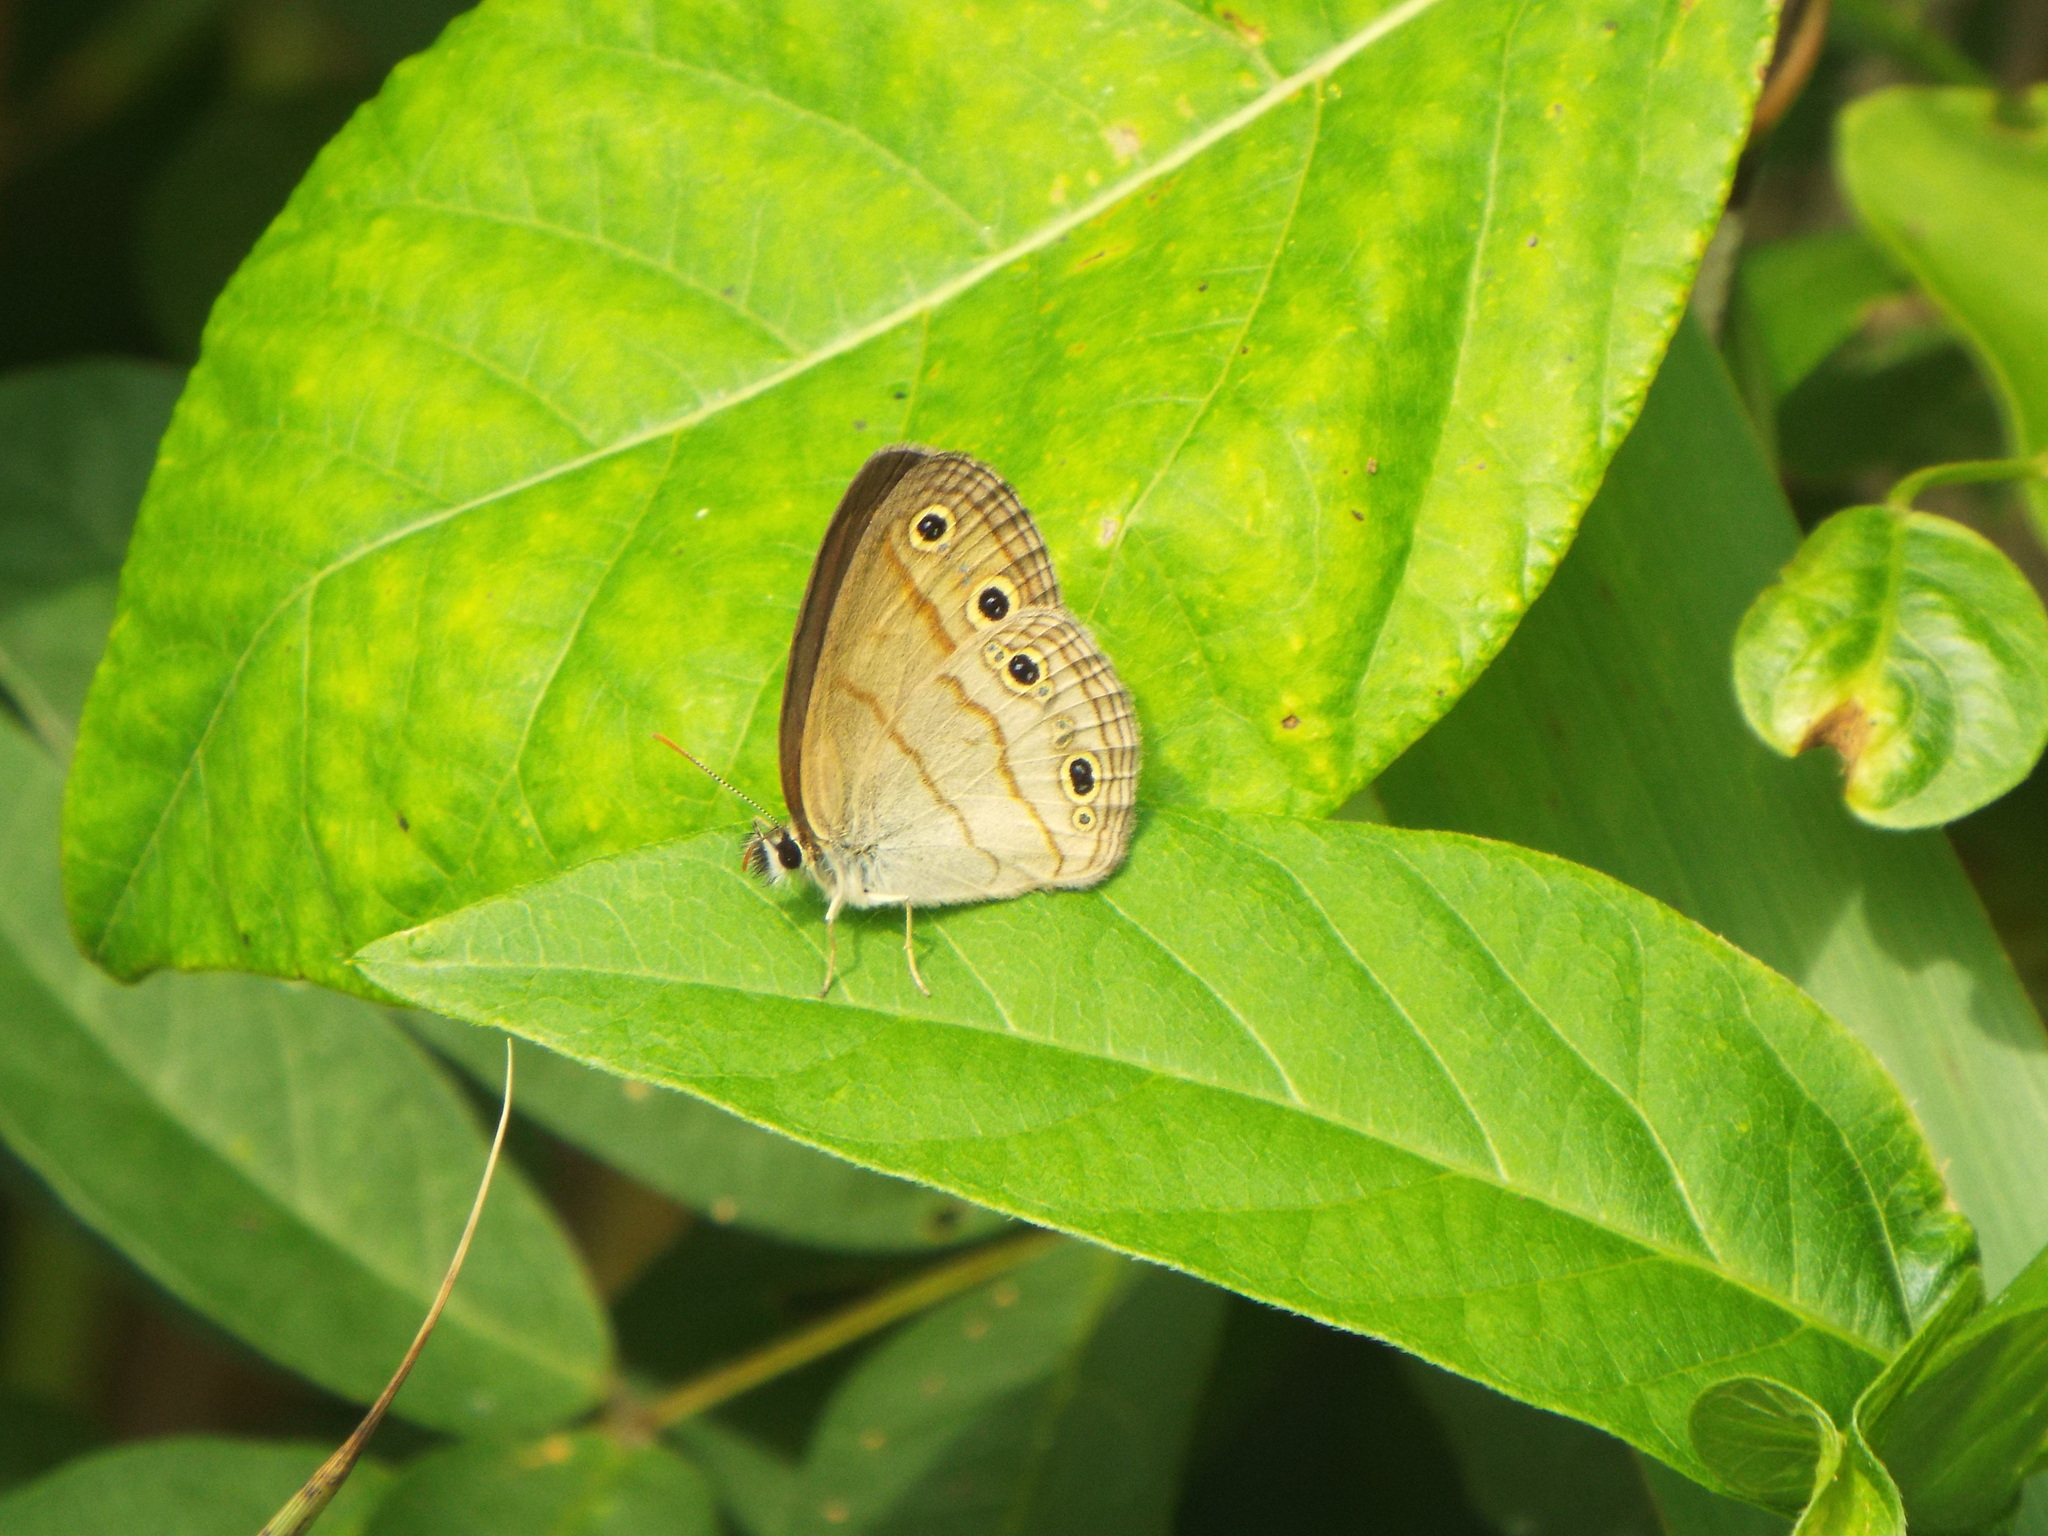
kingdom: Animalia
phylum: Arthropoda
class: Insecta
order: Lepidoptera
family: Nymphalidae
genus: Euptychia
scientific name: Euptychia cymela
